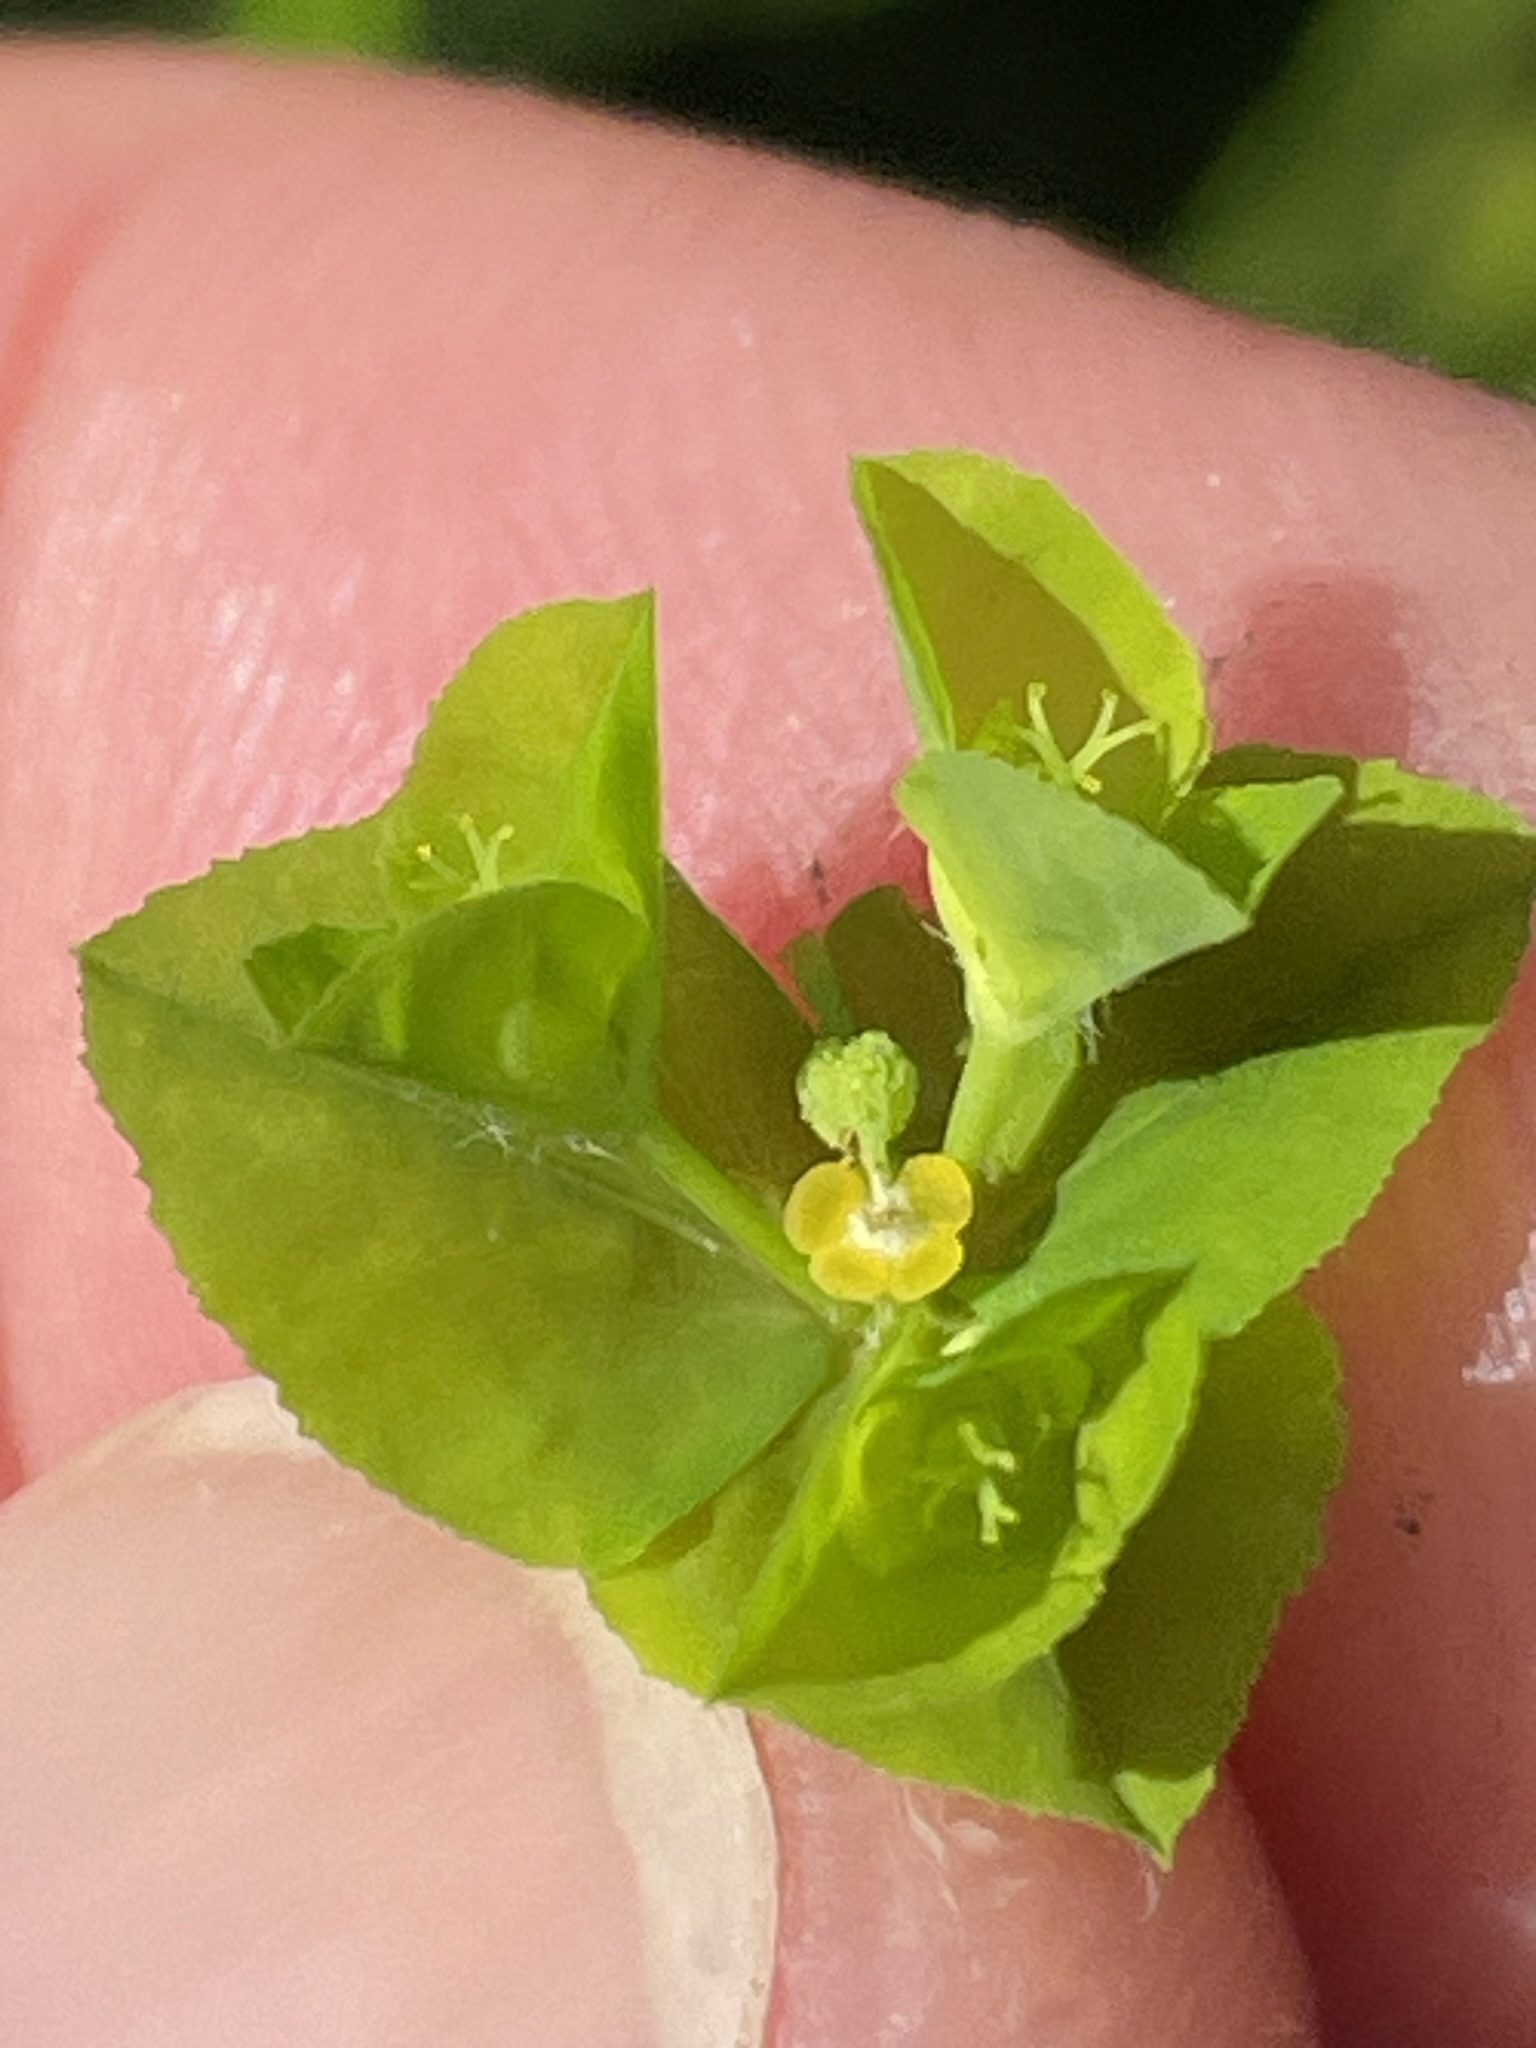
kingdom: Plantae
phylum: Tracheophyta
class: Magnoliopsida
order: Malpighiales
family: Euphorbiaceae
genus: Euphorbia
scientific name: Euphorbia stricta
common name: Upright spurge
